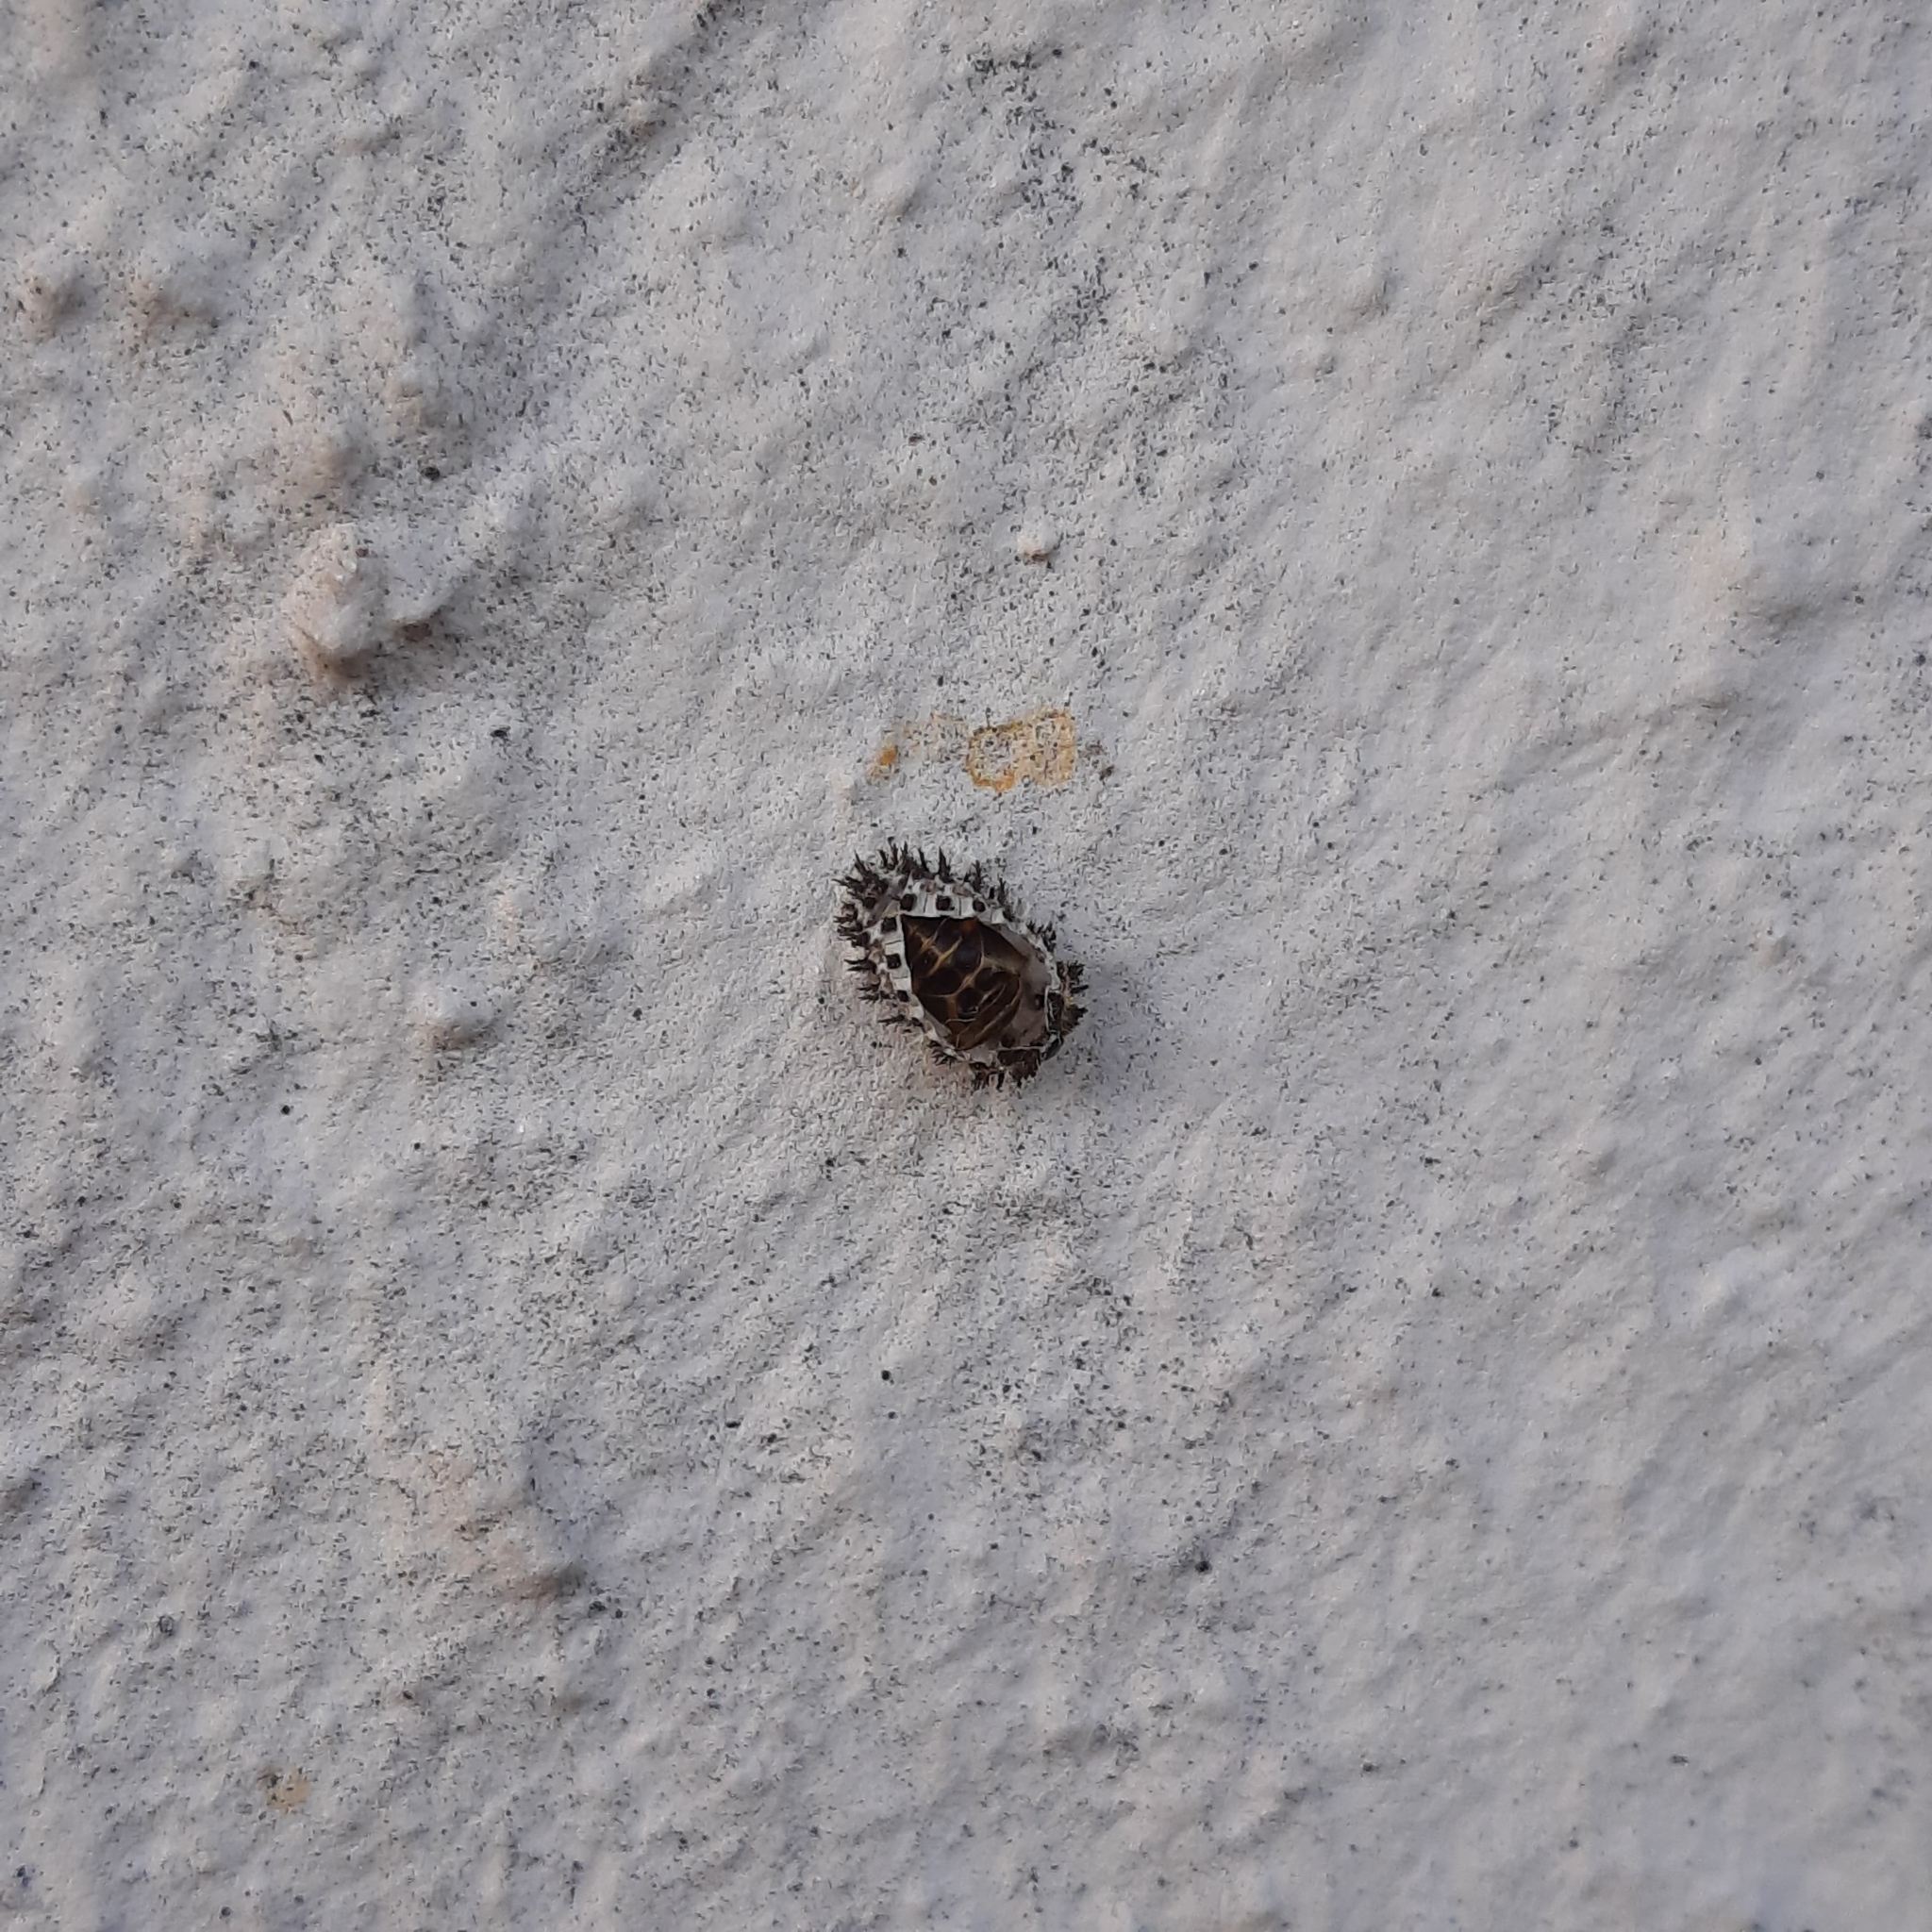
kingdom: Animalia
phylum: Arthropoda
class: Insecta
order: Coleoptera
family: Coccinellidae
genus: Brumus
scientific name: Brumus quadripustulatus
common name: Ladybird beetle
